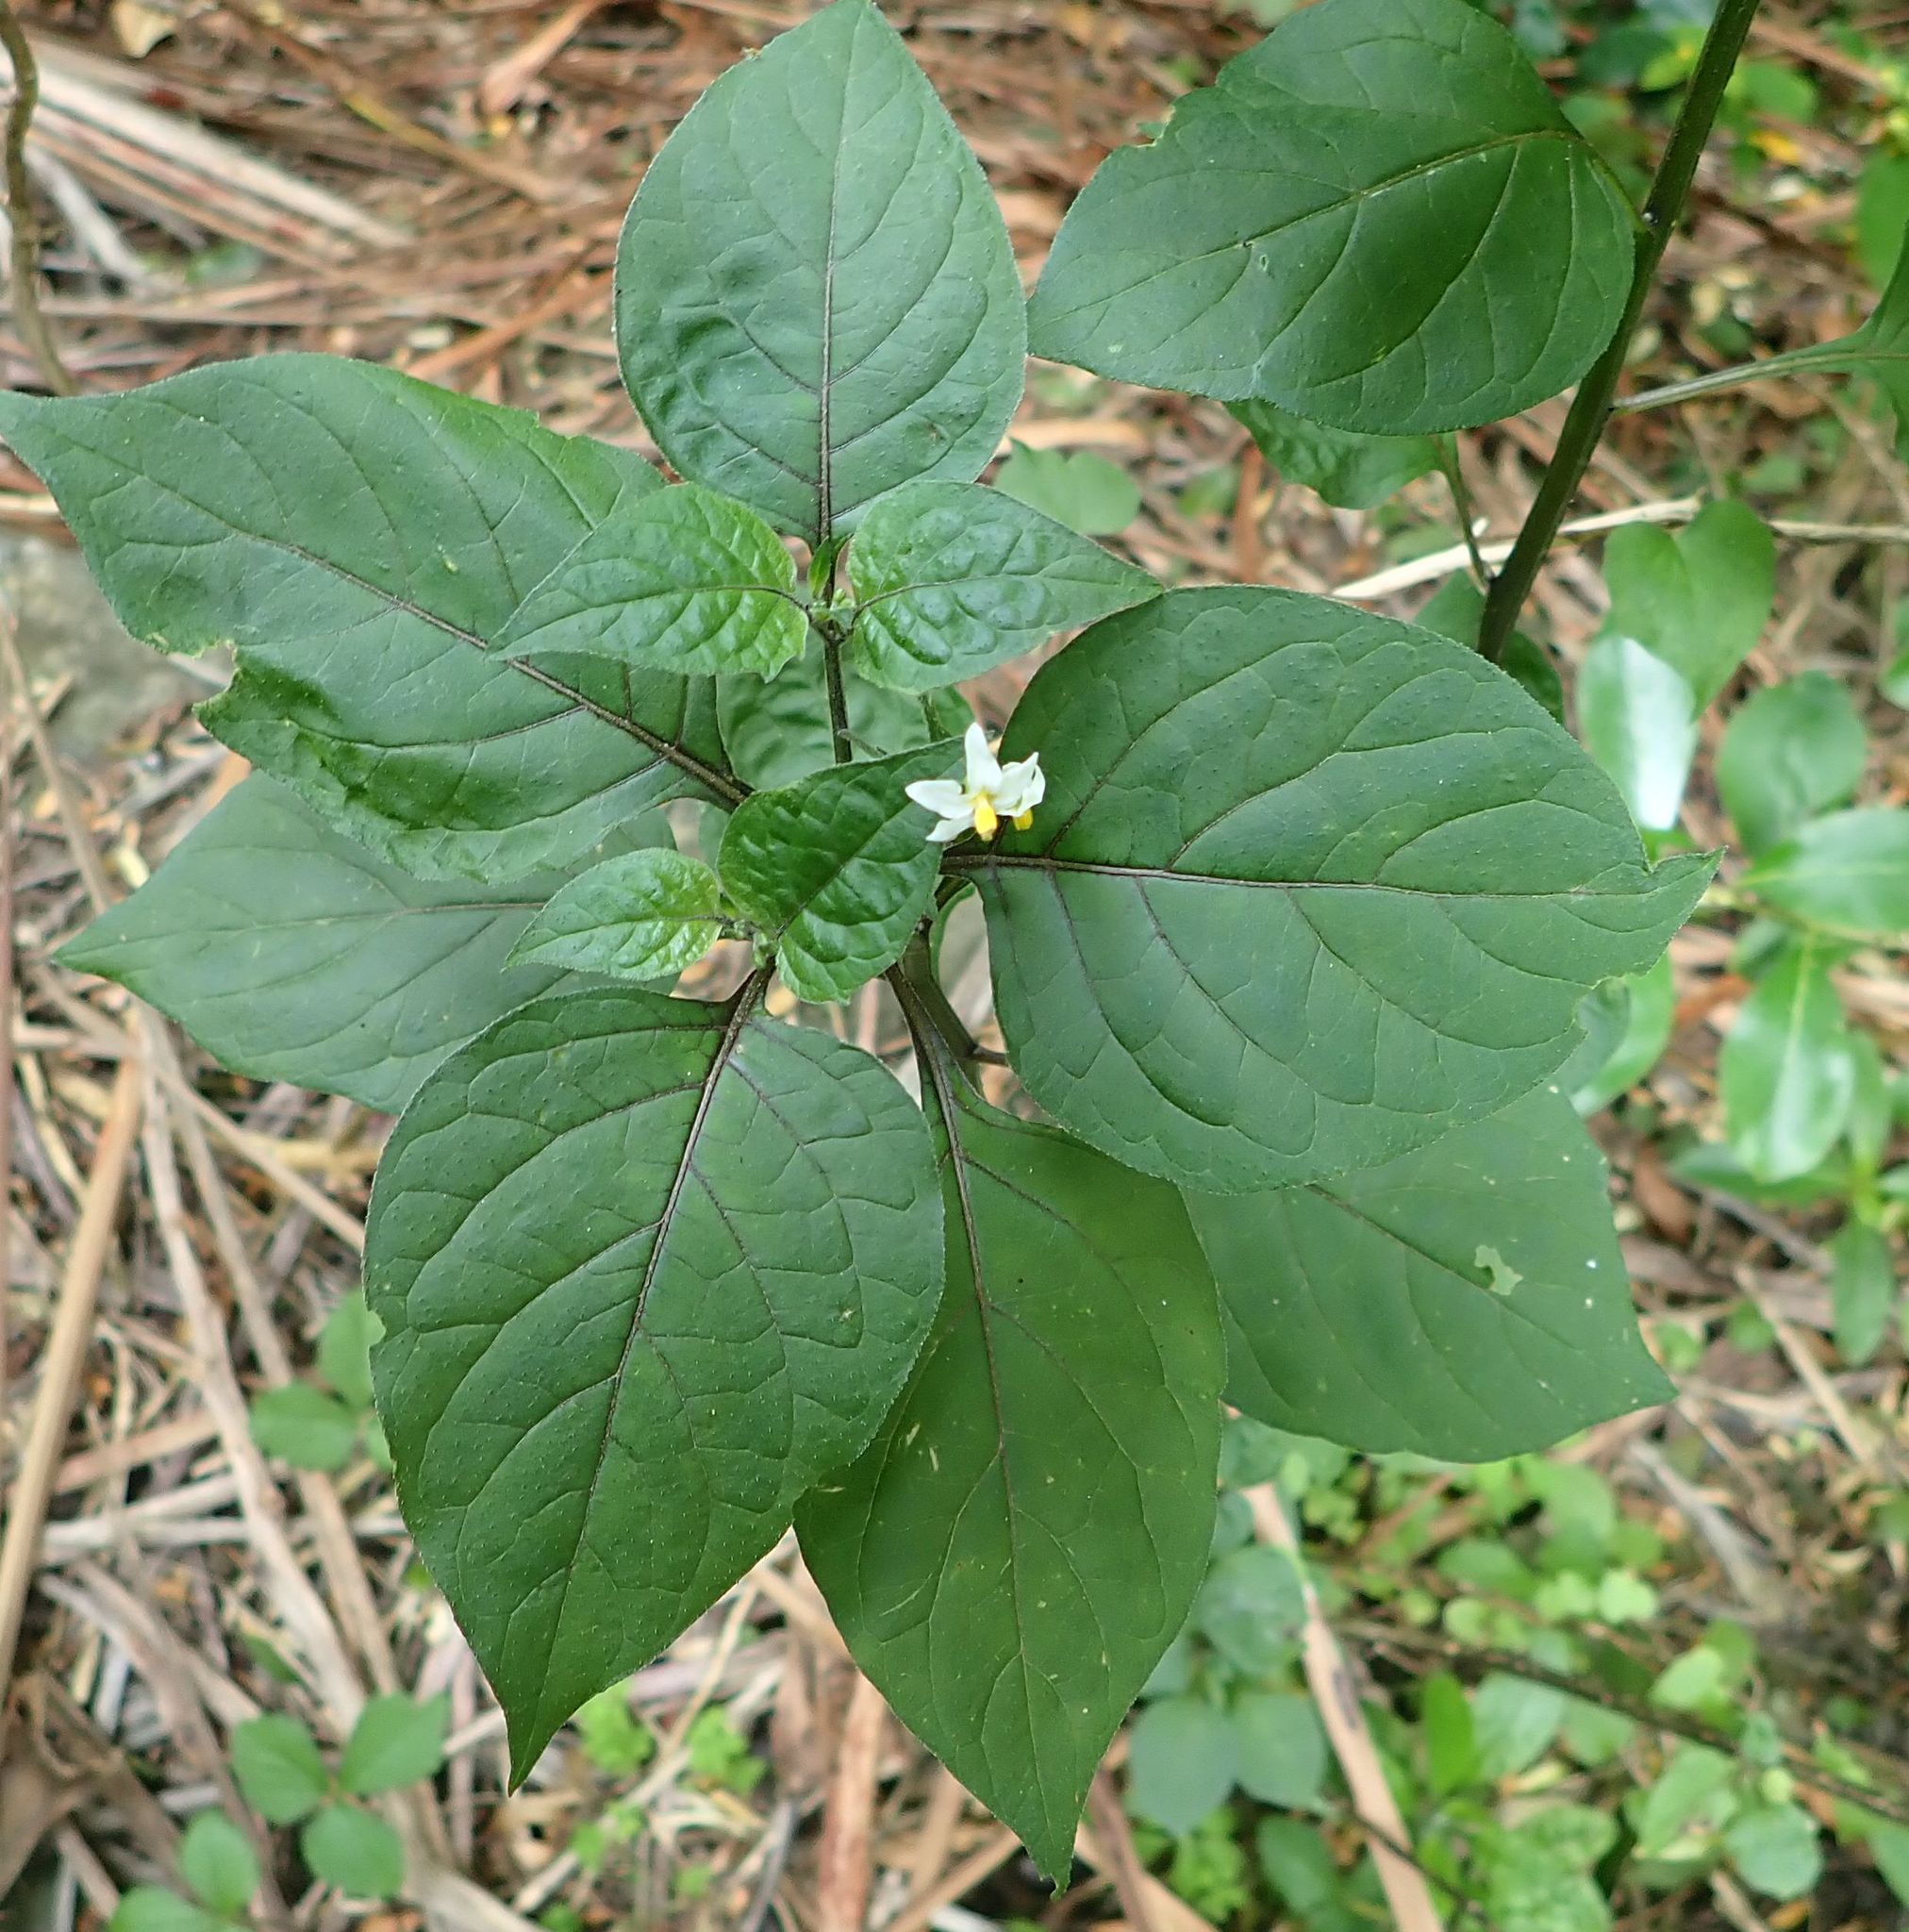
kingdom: Plantae
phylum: Tracheophyta
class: Magnoliopsida
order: Solanales
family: Solanaceae
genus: Solanum
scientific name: Solanum nigrum
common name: Black nightshade
